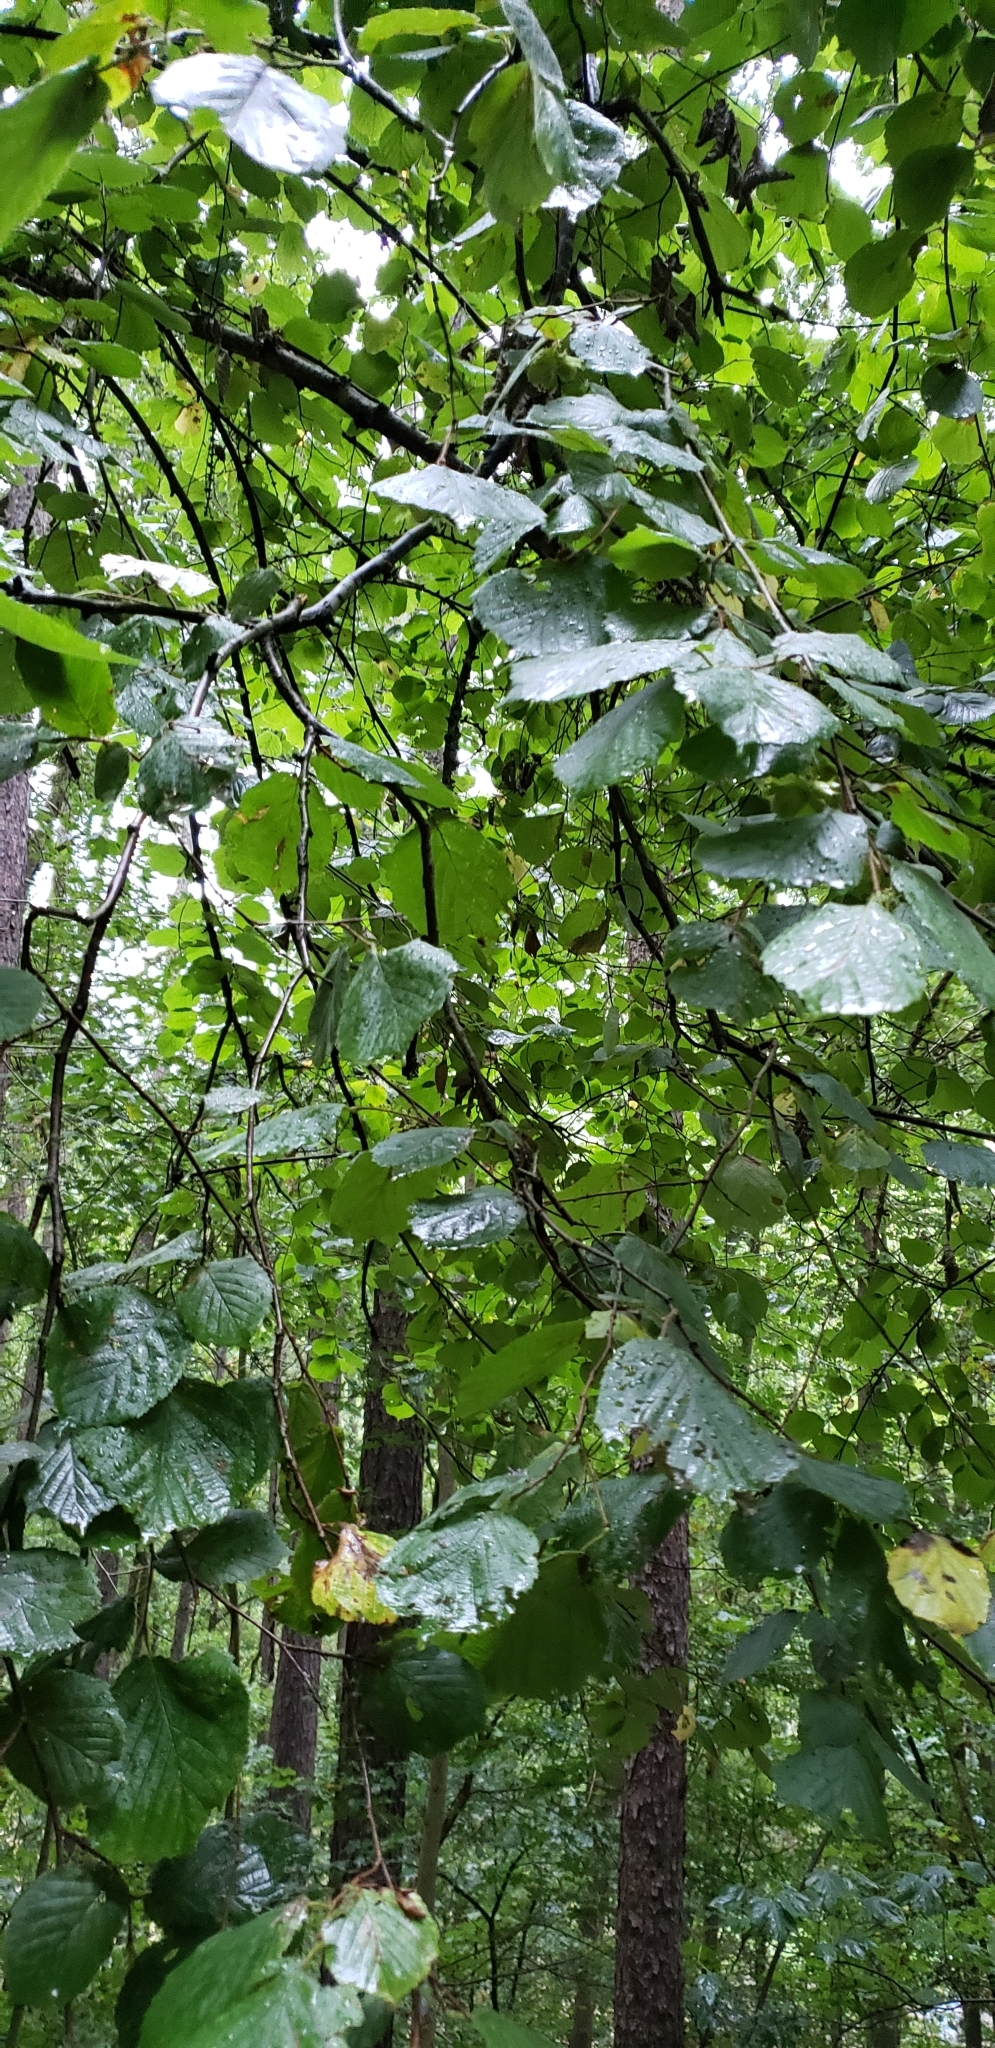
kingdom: Plantae
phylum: Tracheophyta
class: Magnoliopsida
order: Fagales
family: Betulaceae
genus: Corylus
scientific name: Corylus avellana
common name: European hazel
